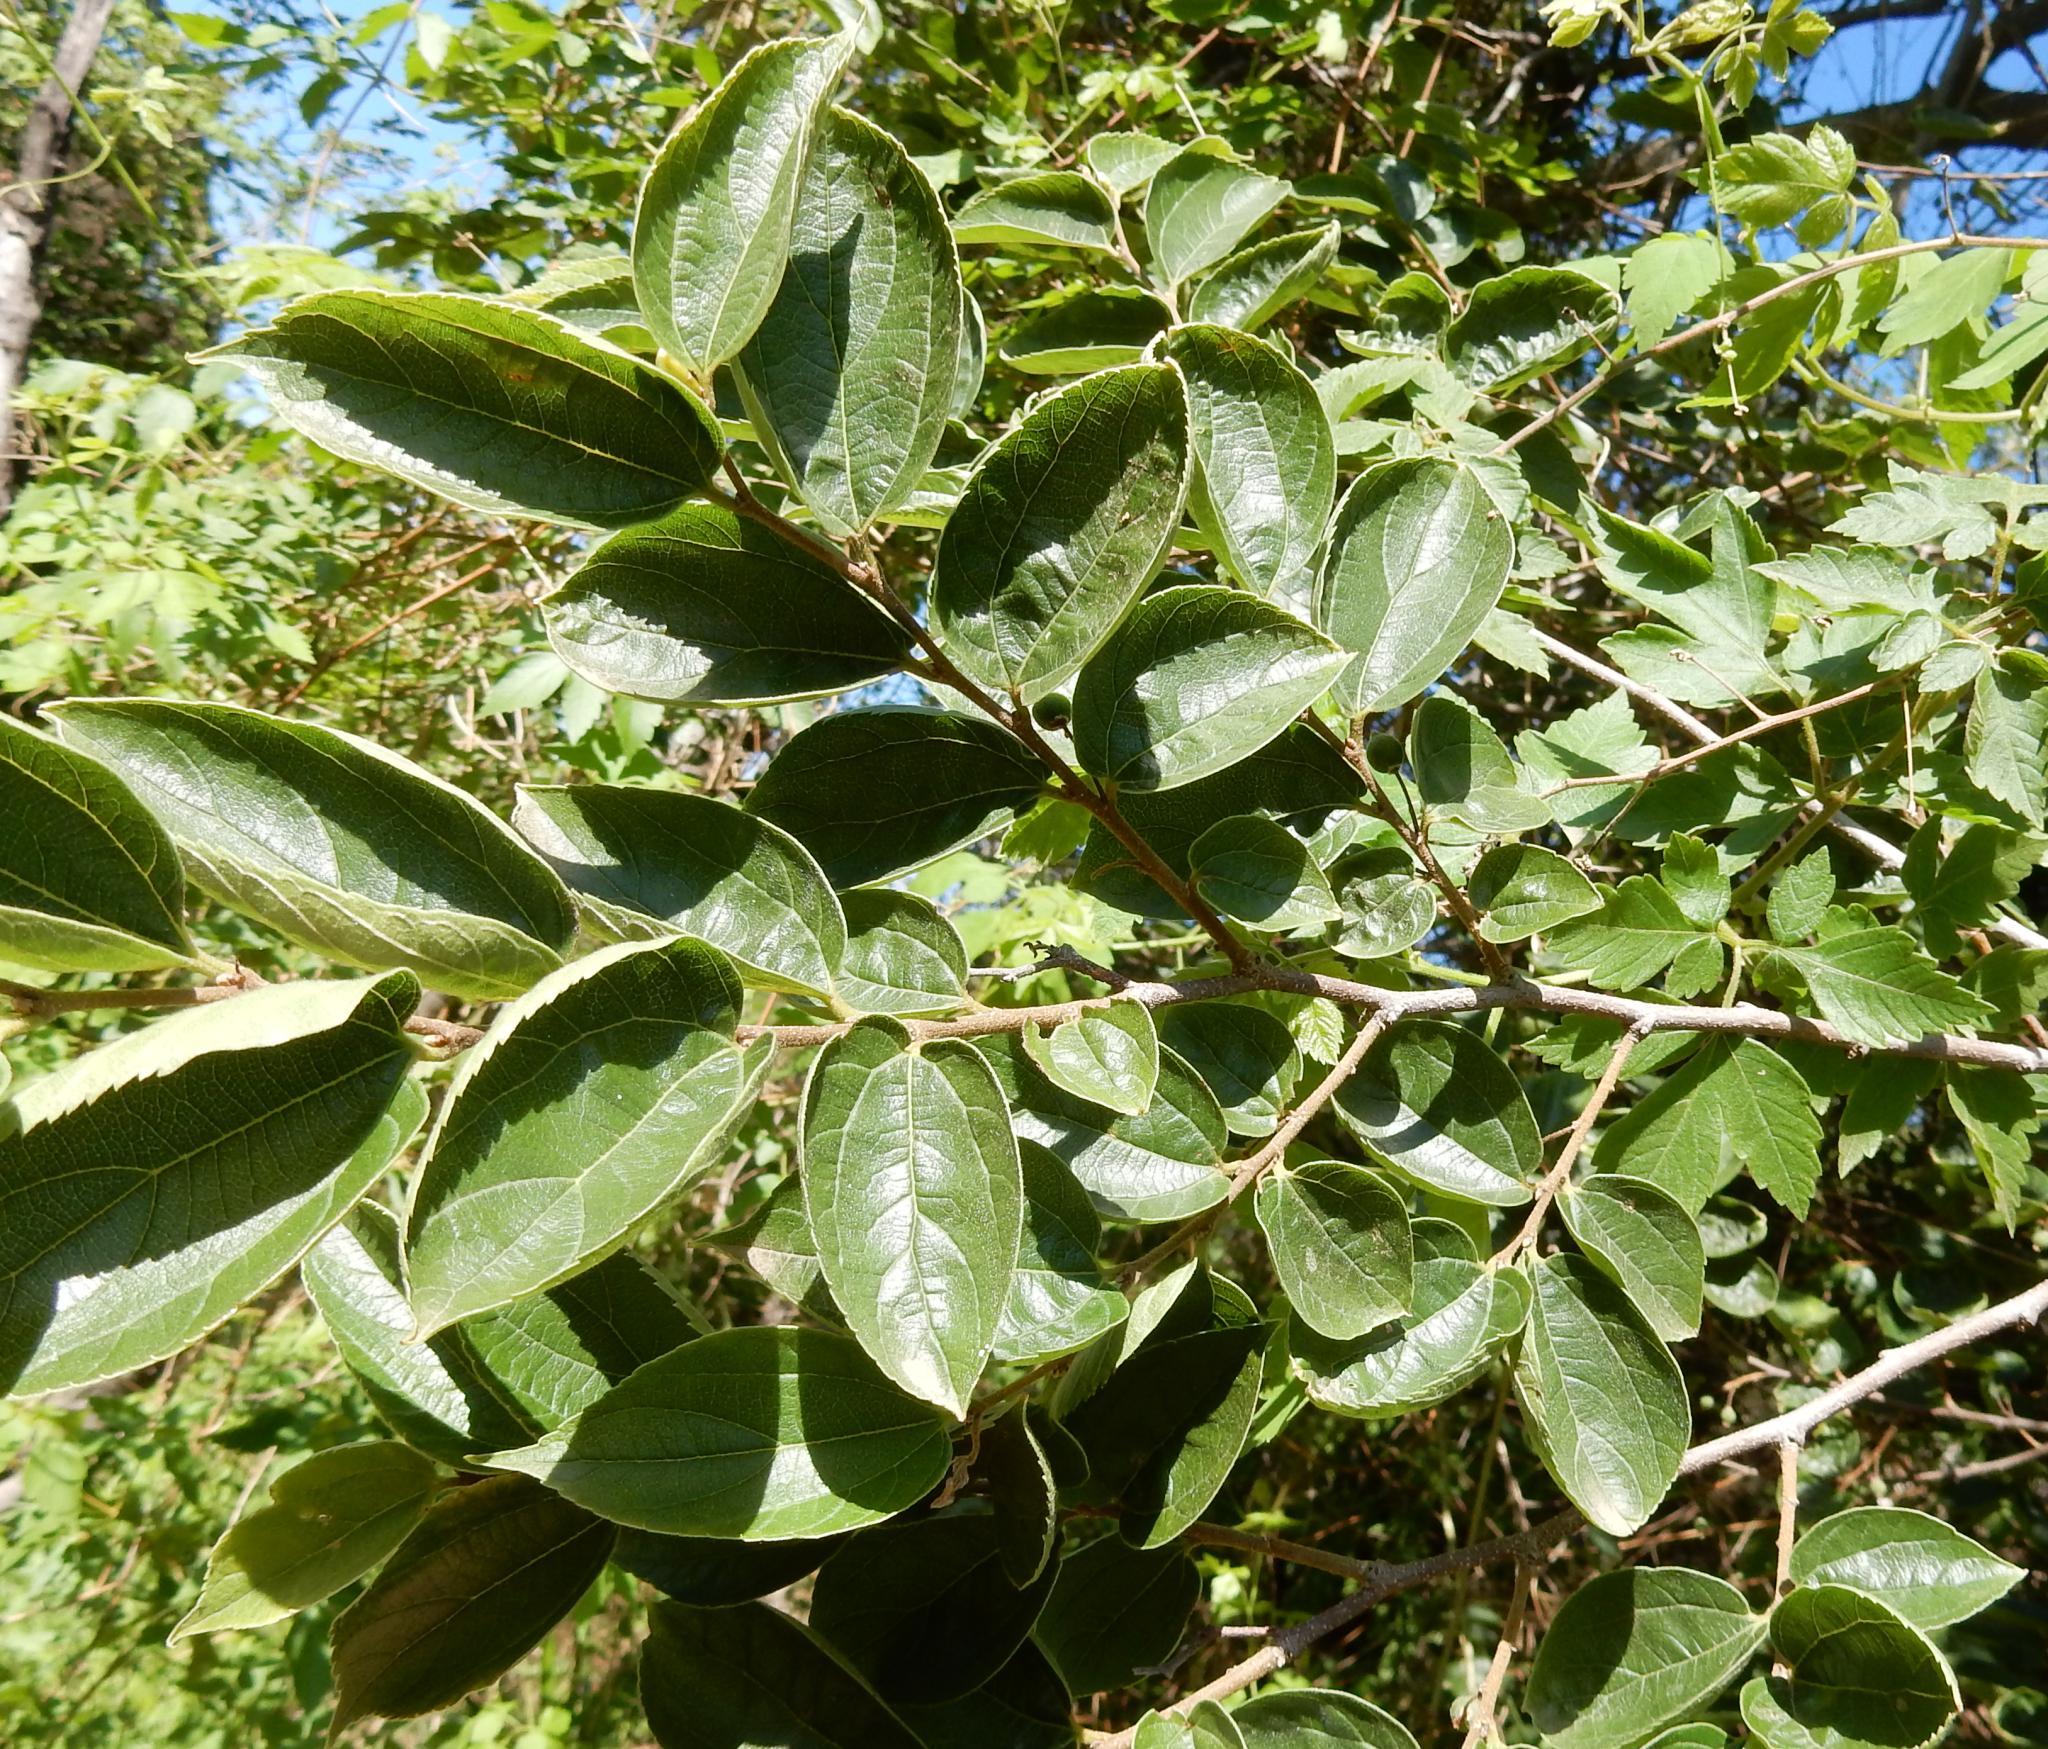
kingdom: Plantae
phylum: Tracheophyta
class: Magnoliopsida
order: Rosales
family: Cannabaceae
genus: Celtis
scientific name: Celtis africana
